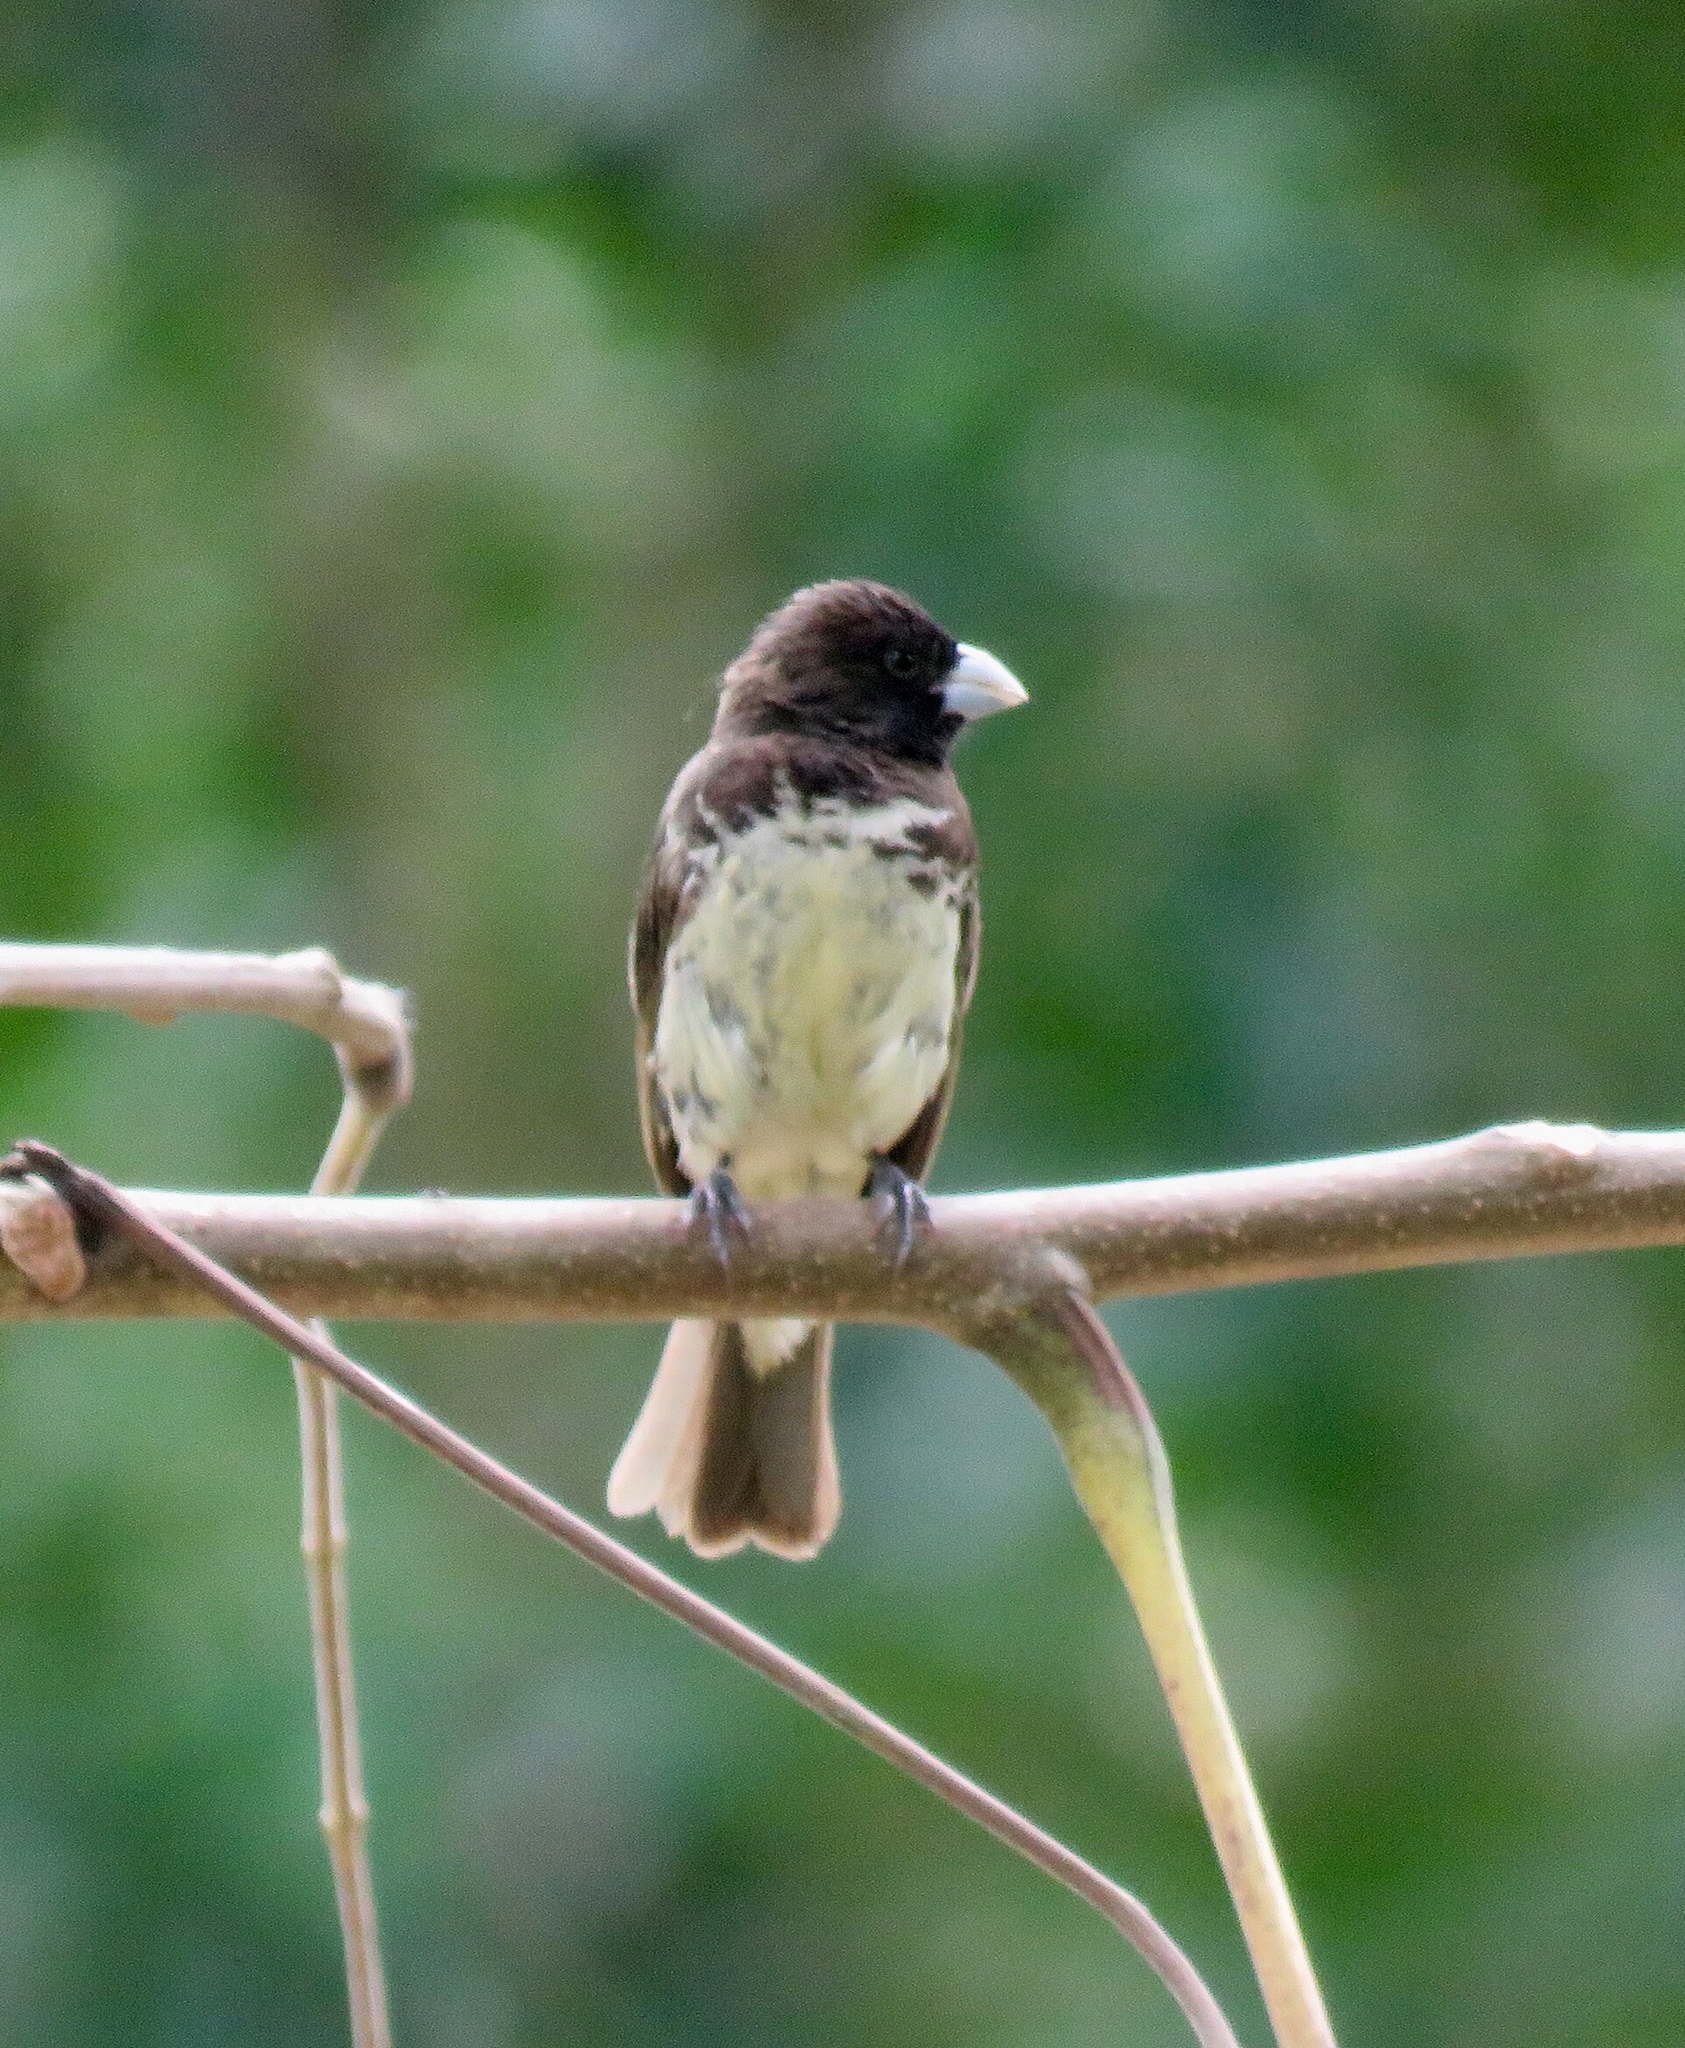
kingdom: Animalia
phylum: Chordata
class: Aves
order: Passeriformes
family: Thraupidae
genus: Sporophila
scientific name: Sporophila nigricollis
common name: Yellow-bellied seedeater
